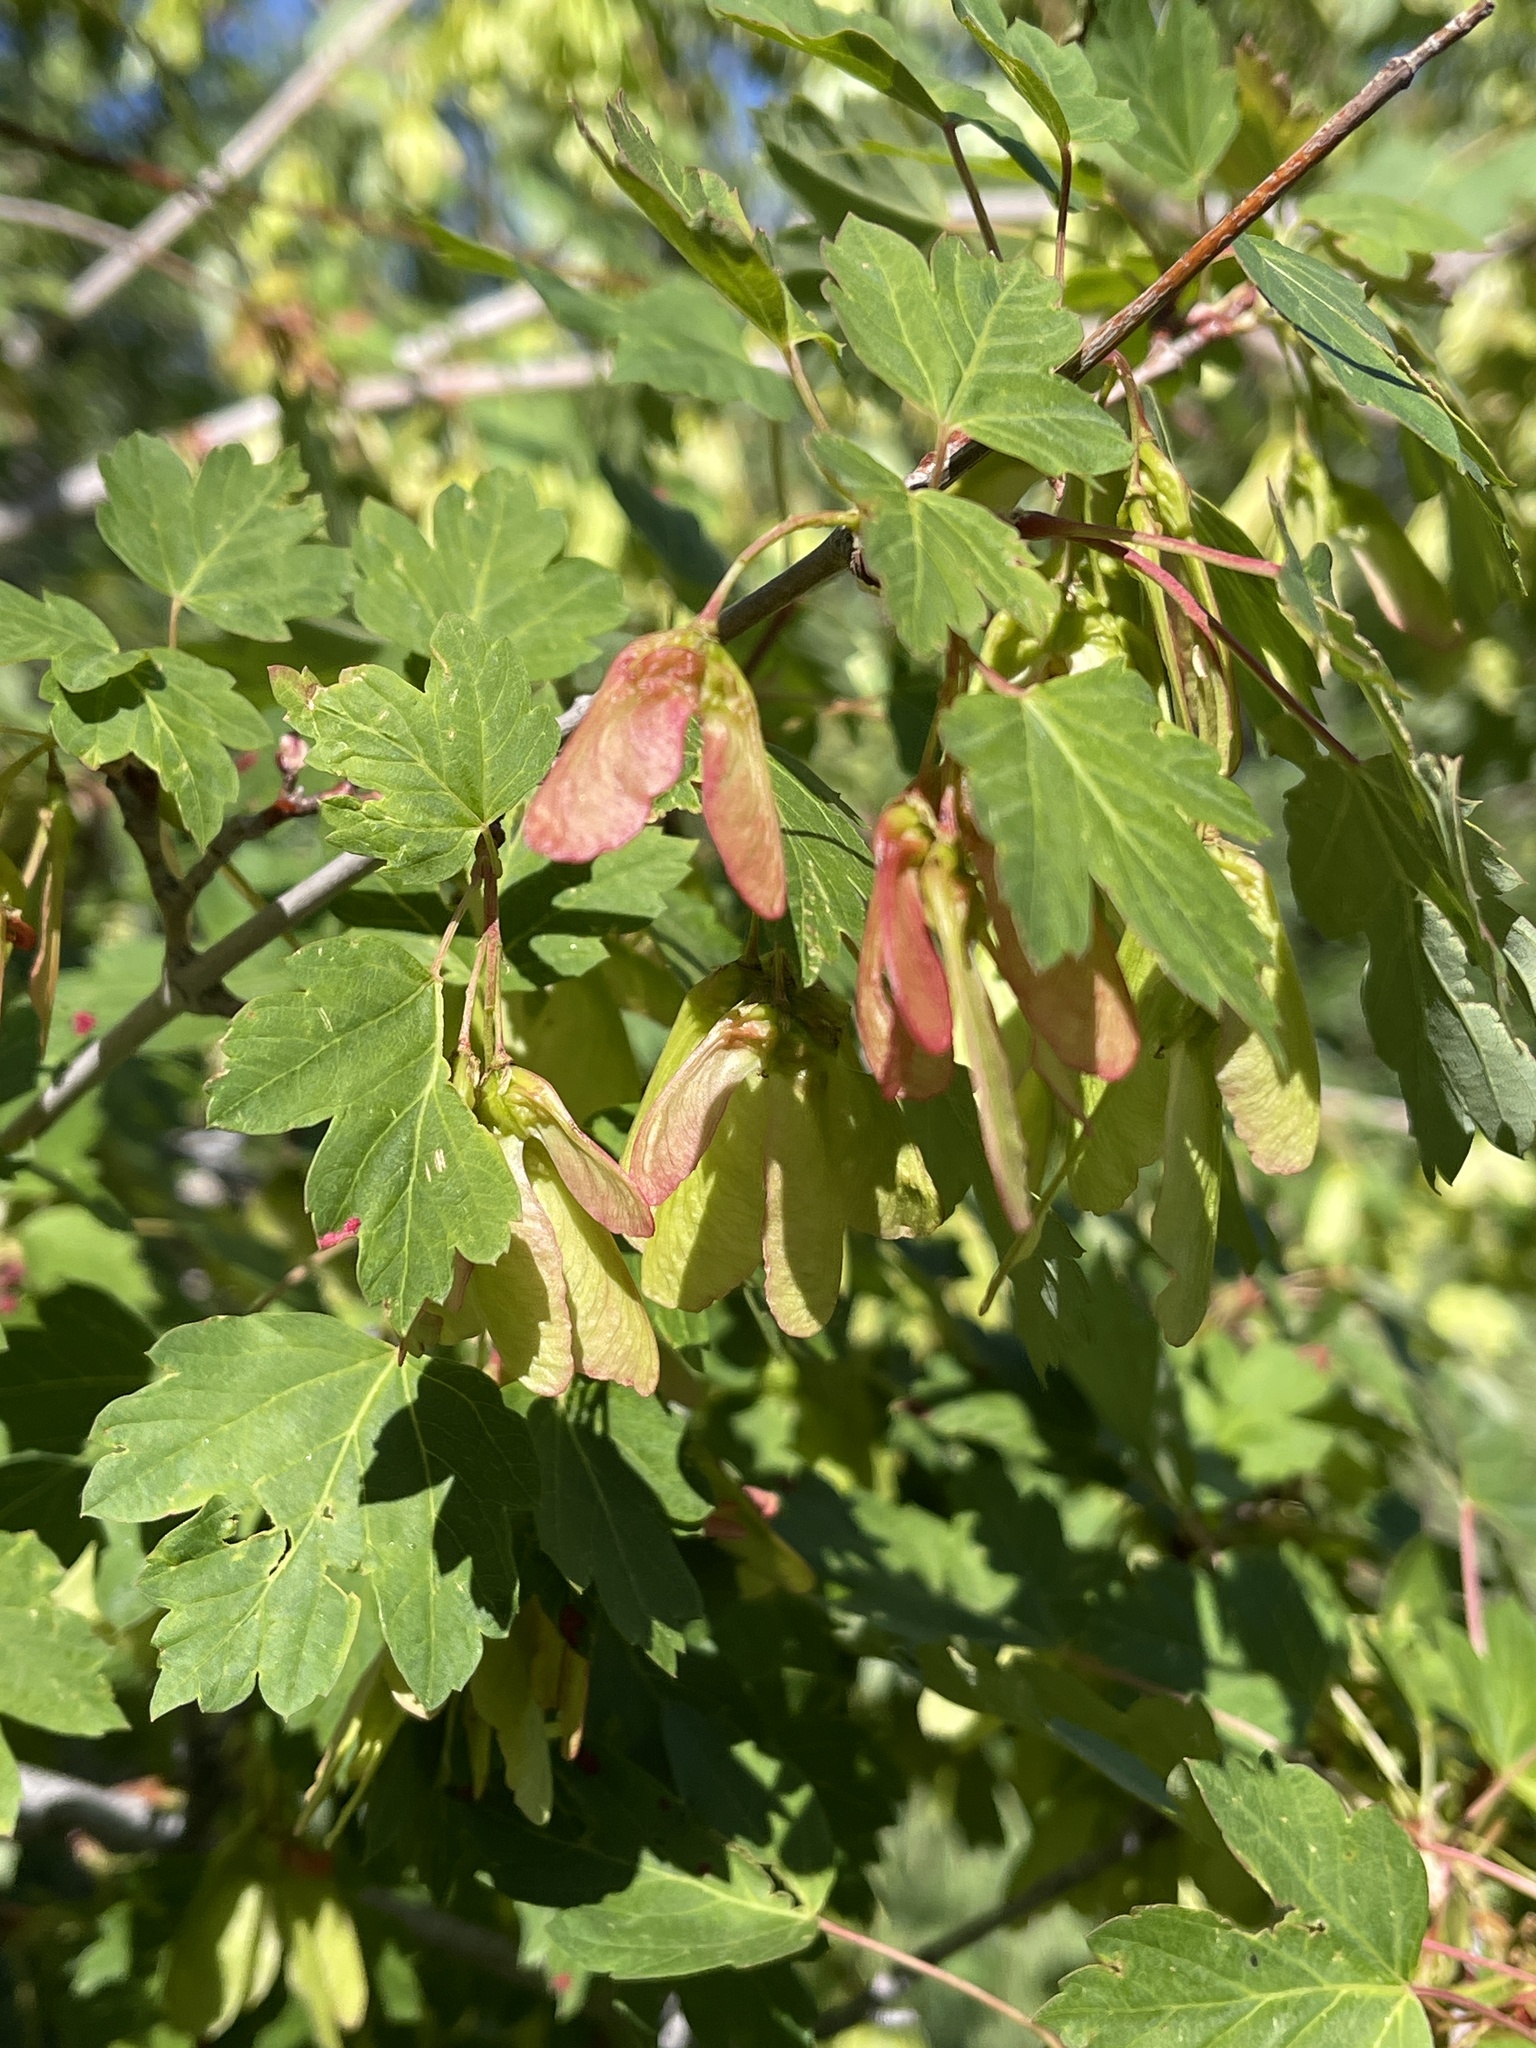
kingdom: Plantae
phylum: Tracheophyta
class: Magnoliopsida
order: Sapindales
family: Sapindaceae
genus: Acer
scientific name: Acer glabrum
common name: Rocky mountain maple
